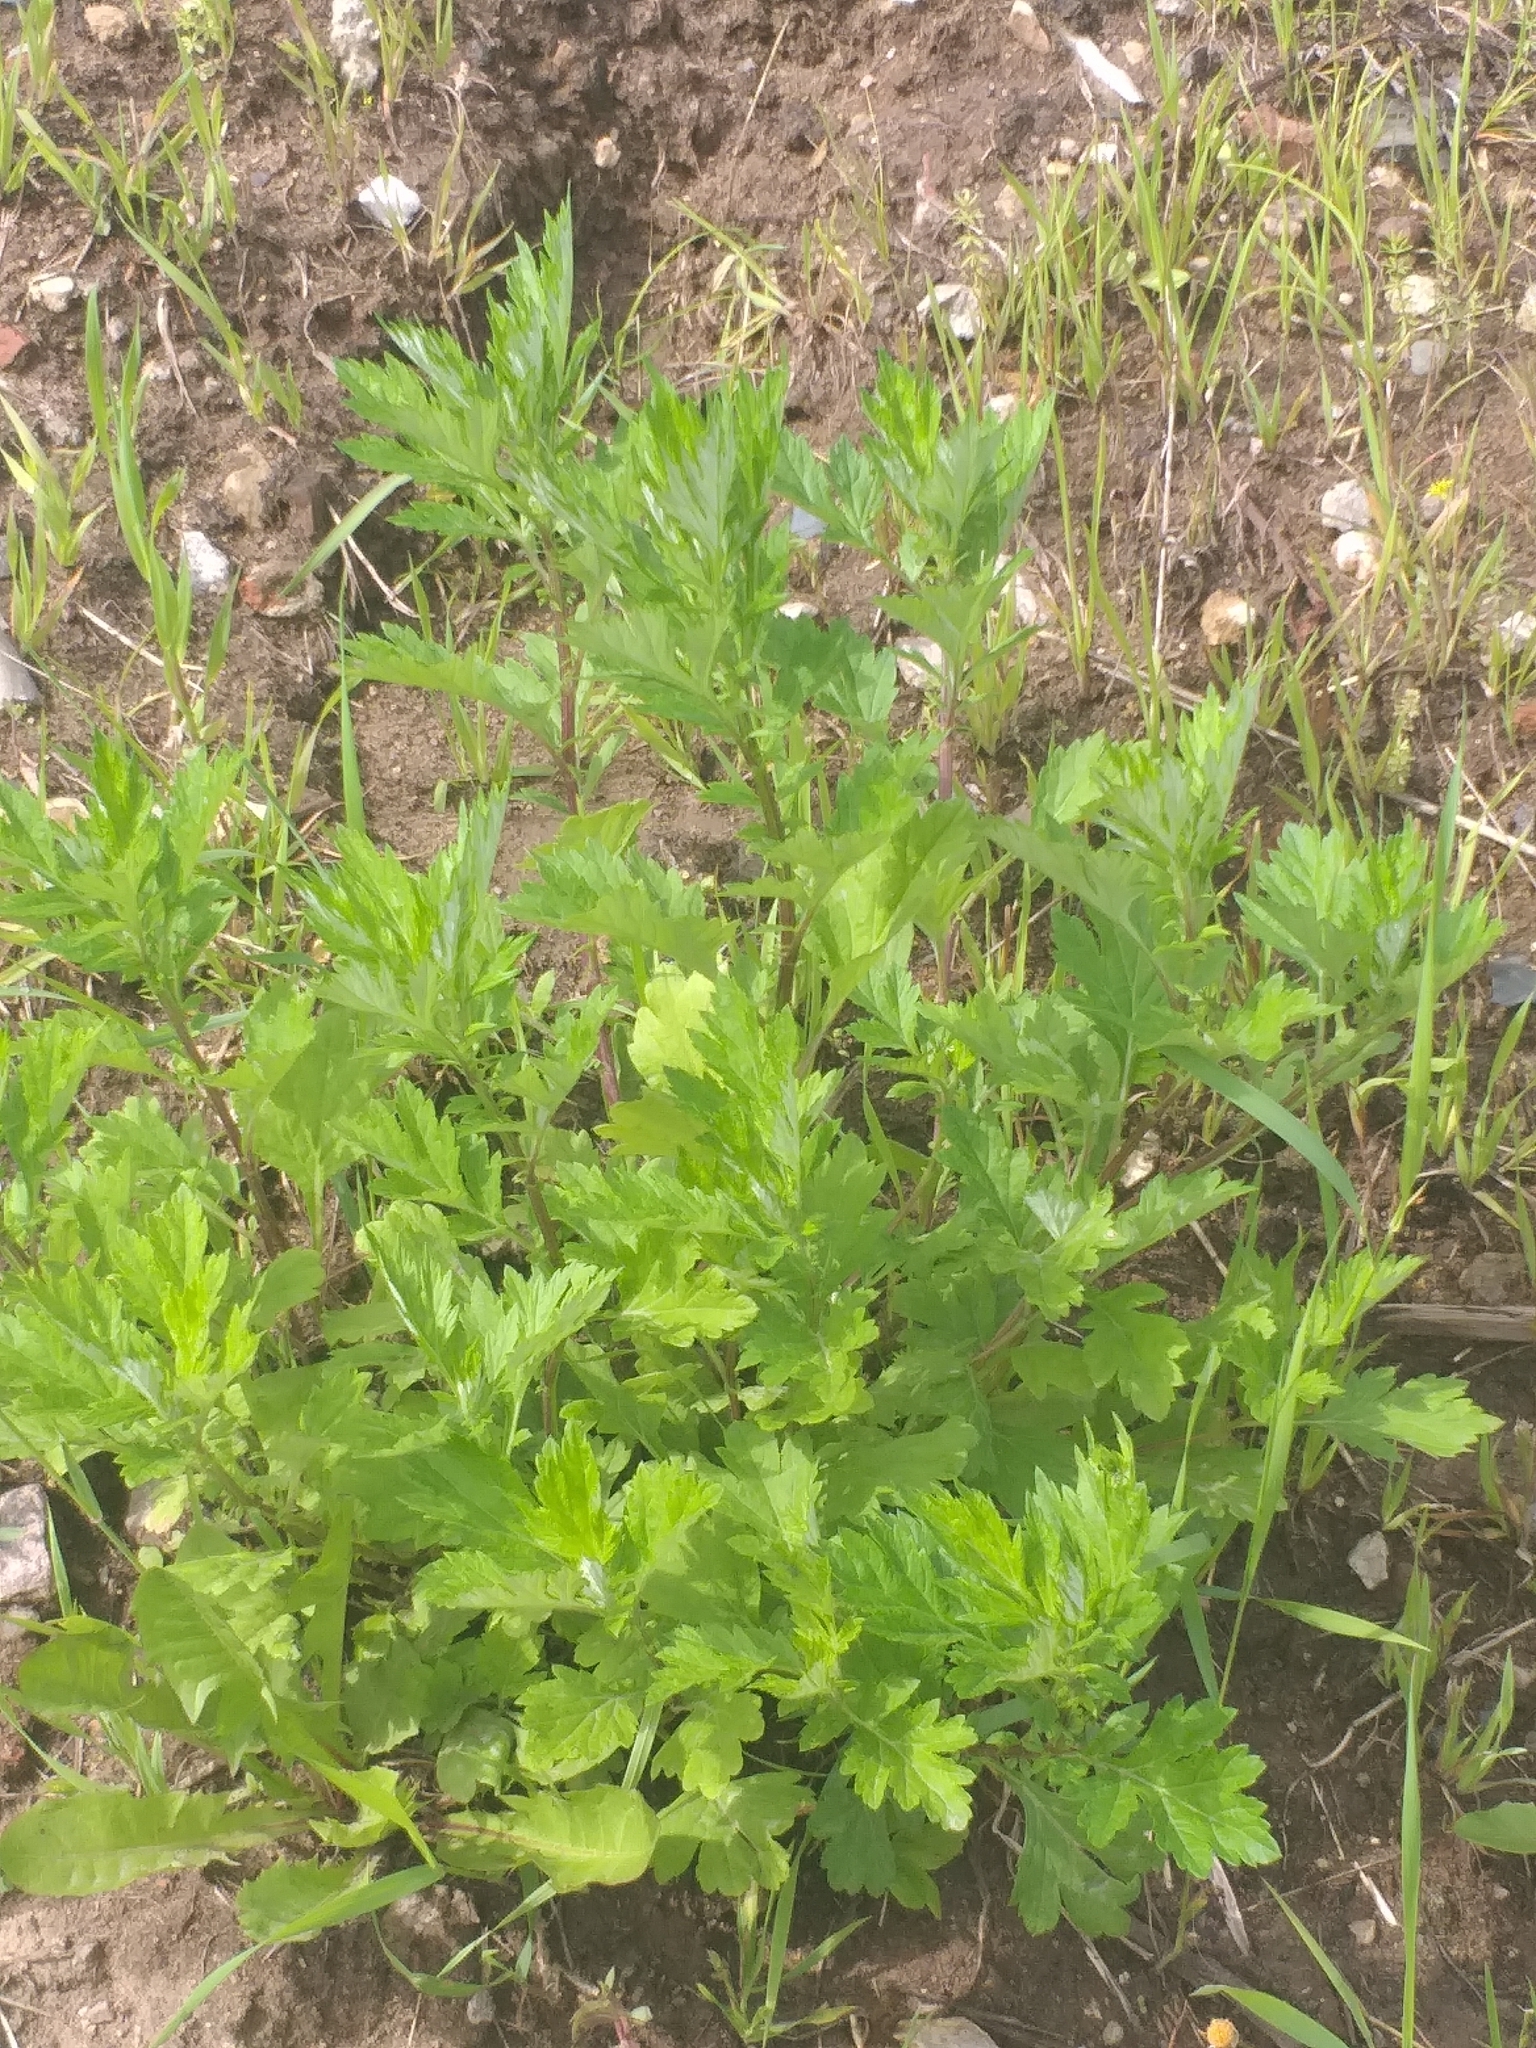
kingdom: Plantae
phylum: Tracheophyta
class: Magnoliopsida
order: Asterales
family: Asteraceae
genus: Artemisia
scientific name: Artemisia vulgaris
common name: Mugwort
